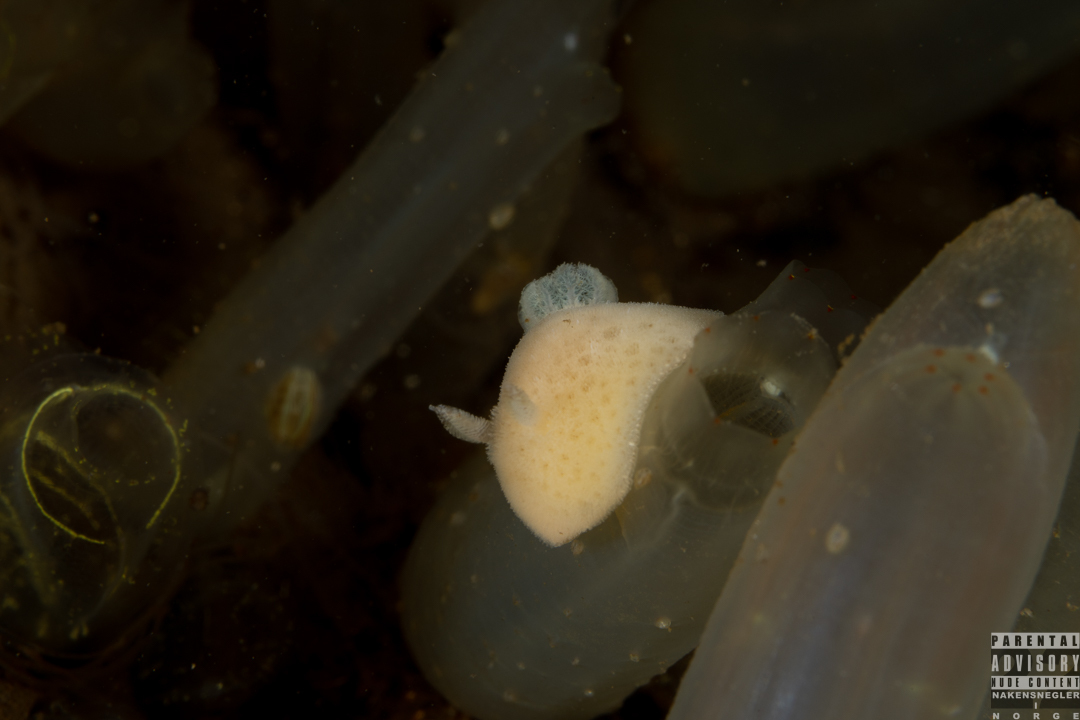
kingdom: Animalia
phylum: Mollusca
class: Gastropoda
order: Nudibranchia
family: Discodorididae
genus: Jorunna
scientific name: Jorunna tomentosa
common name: Grey sea slug
